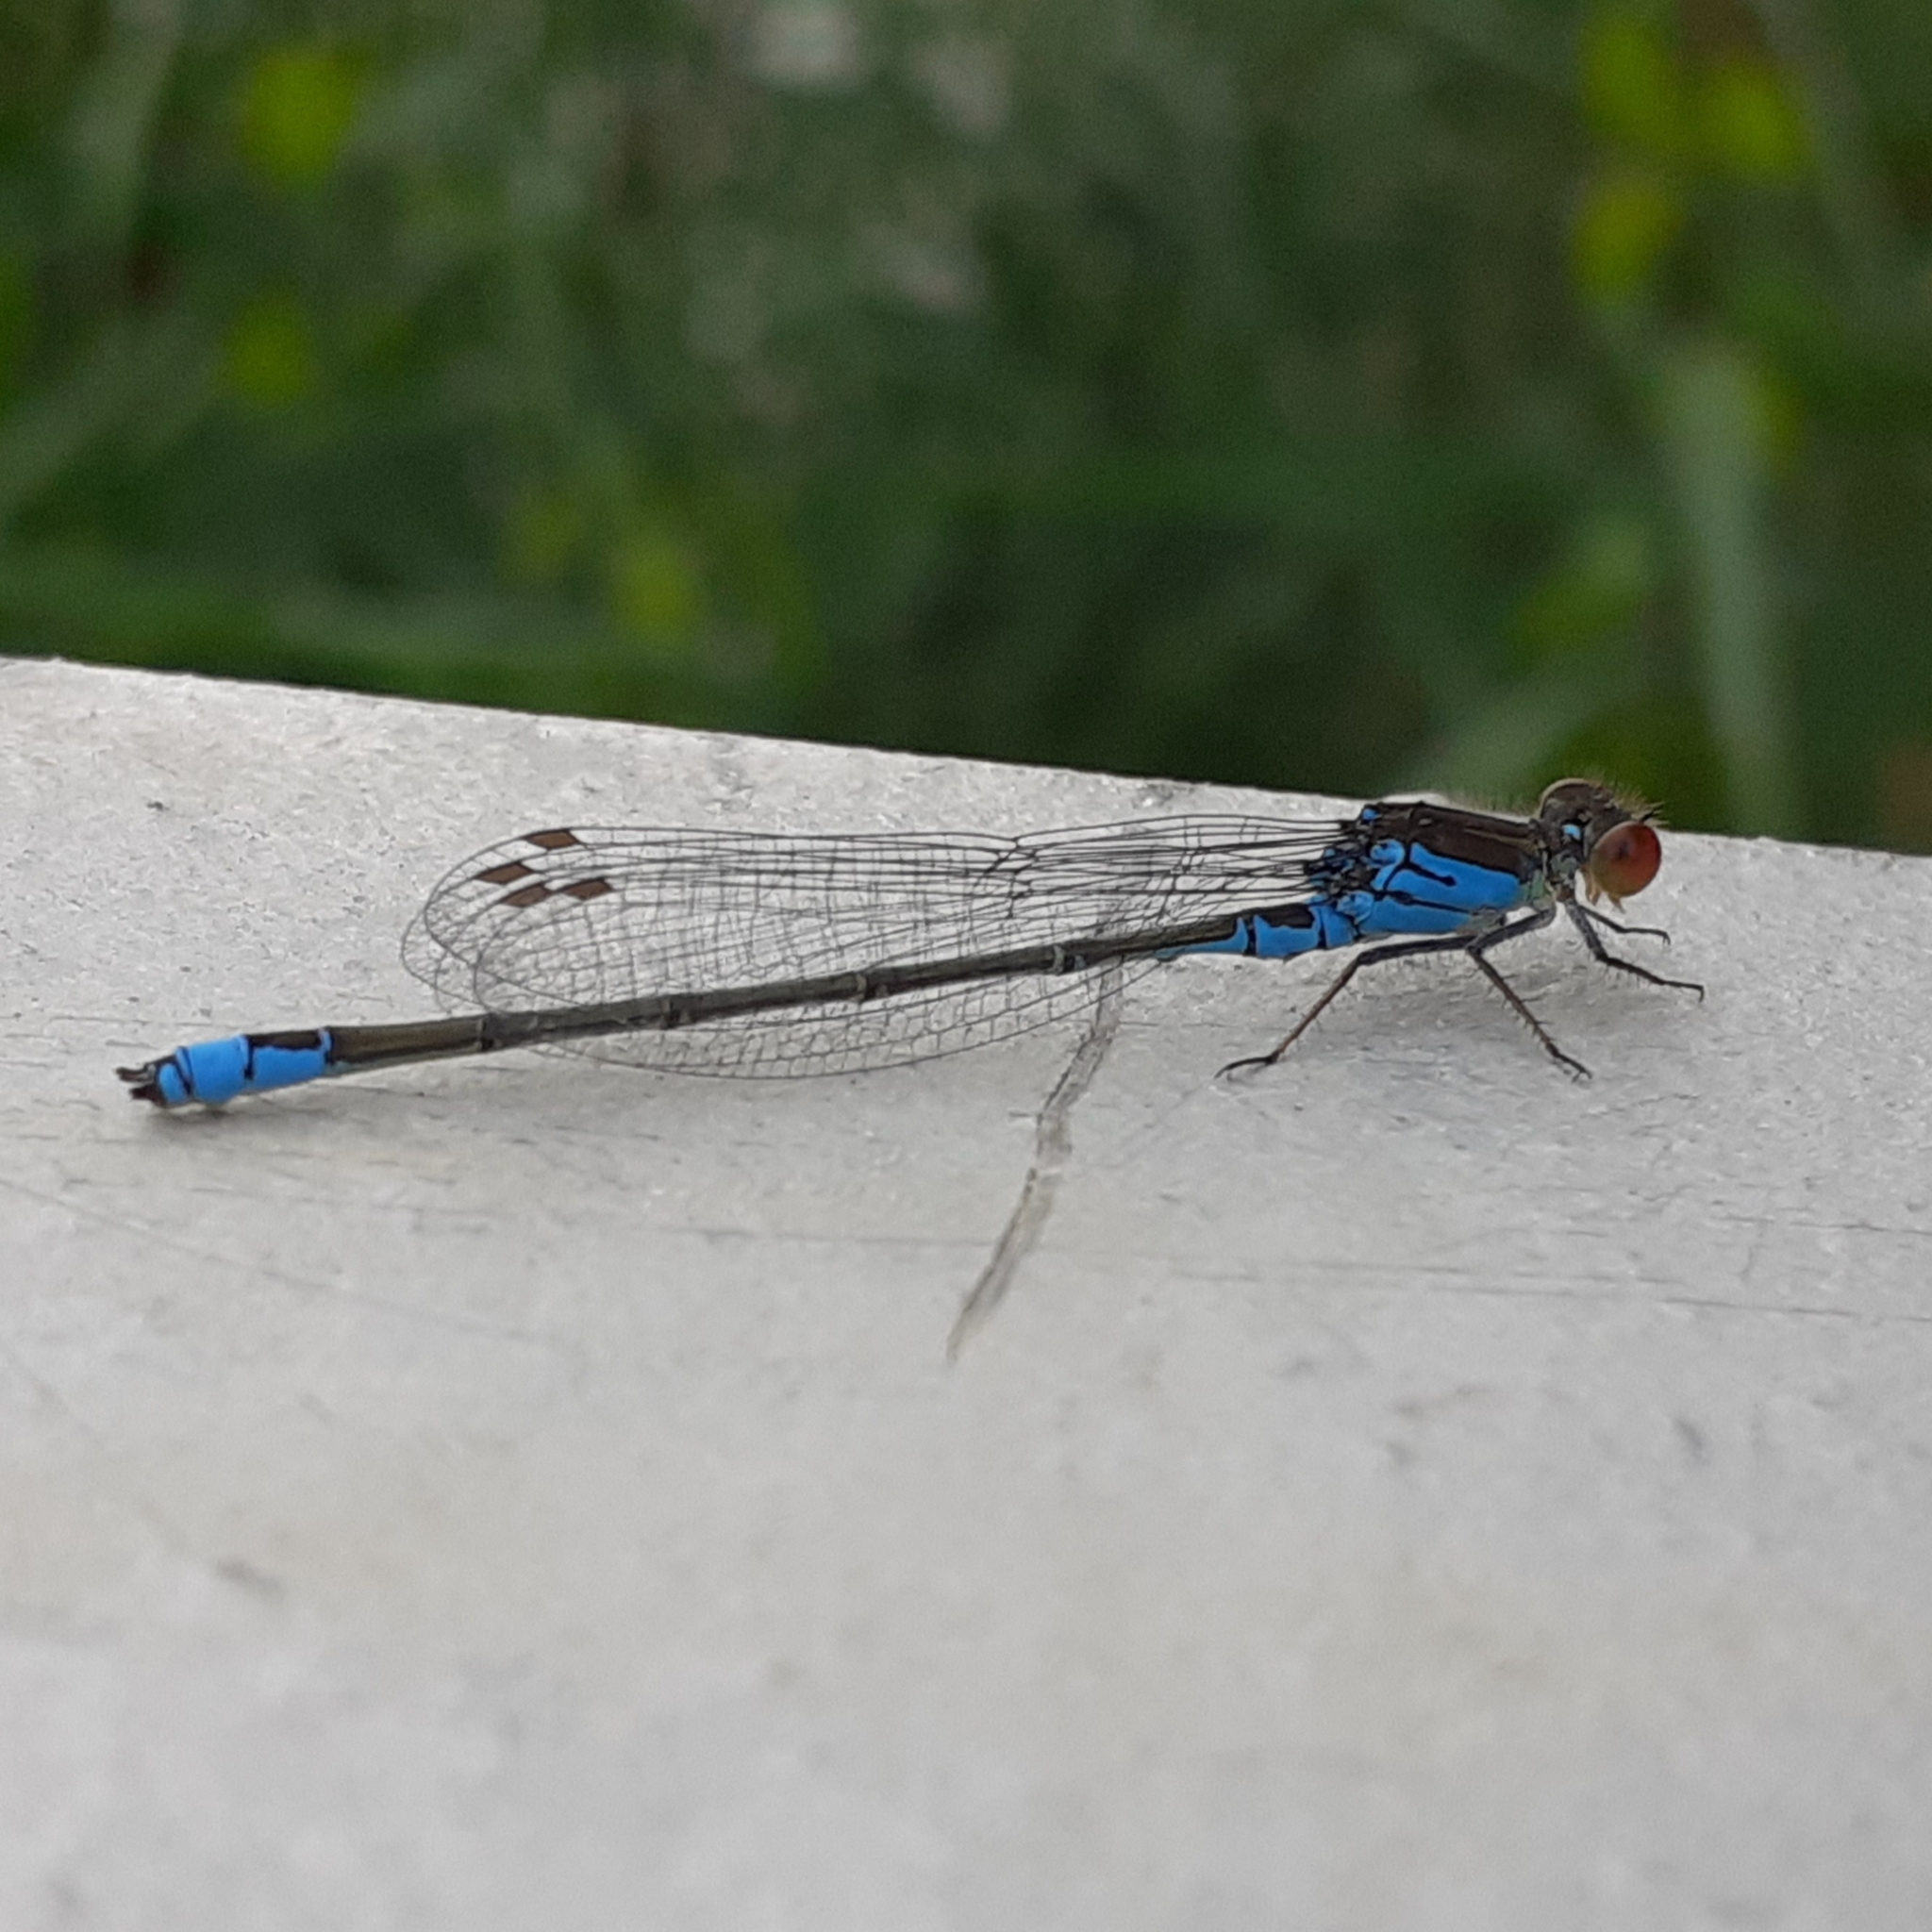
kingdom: Animalia
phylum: Arthropoda
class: Insecta
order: Odonata
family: Coenagrionidae
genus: Erythromma
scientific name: Erythromma viridulum
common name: Small red-eyed damselfly
